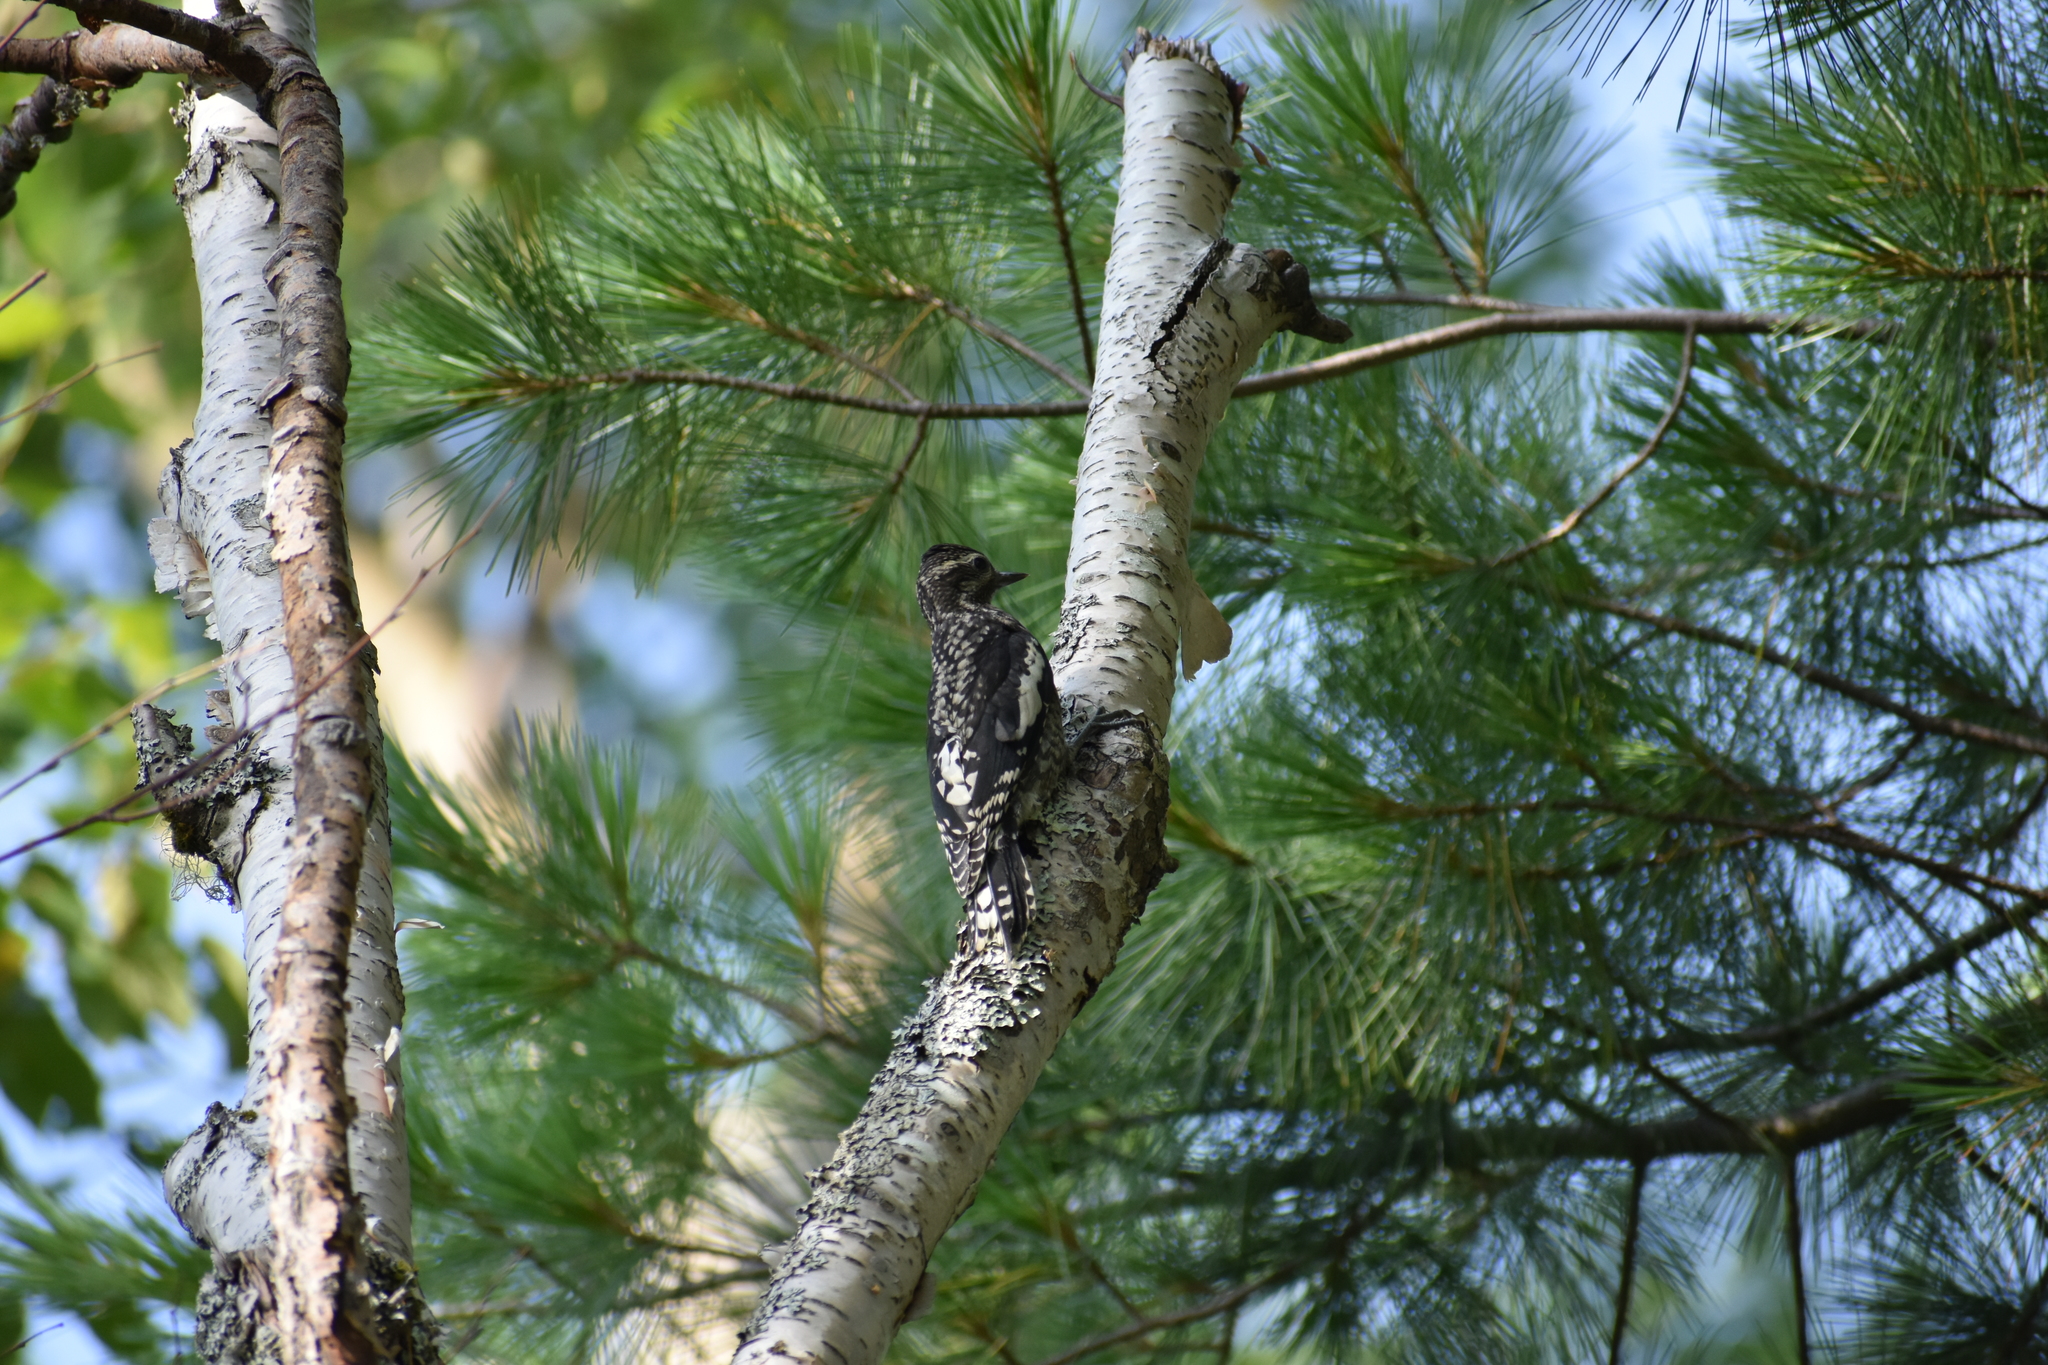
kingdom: Animalia
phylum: Chordata
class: Aves
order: Piciformes
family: Picidae
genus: Sphyrapicus
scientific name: Sphyrapicus varius
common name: Yellow-bellied sapsucker
